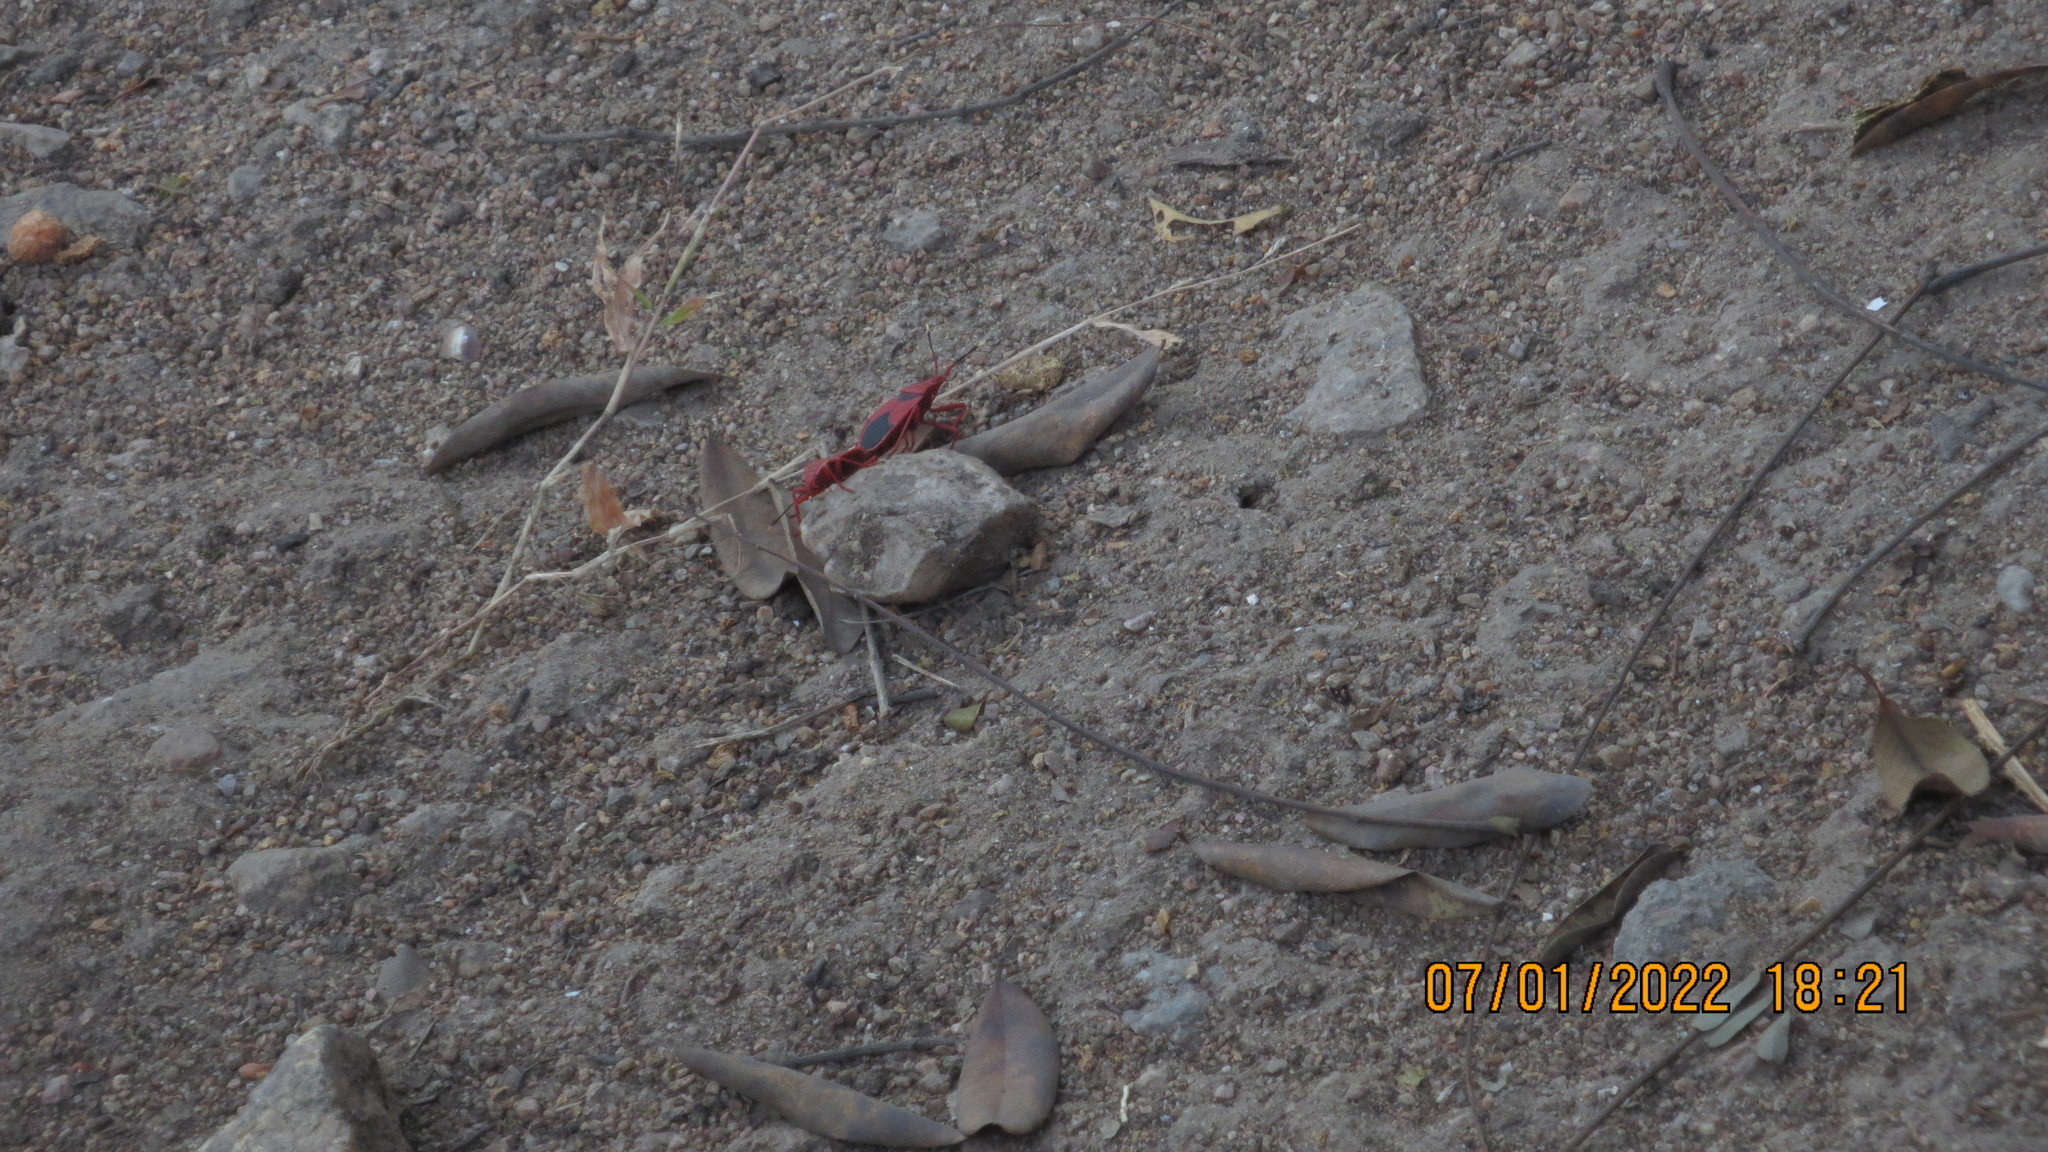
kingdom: Animalia
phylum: Arthropoda
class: Insecta
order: Hemiptera
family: Pyrrhocoridae
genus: Probergrothius
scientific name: Probergrothius
